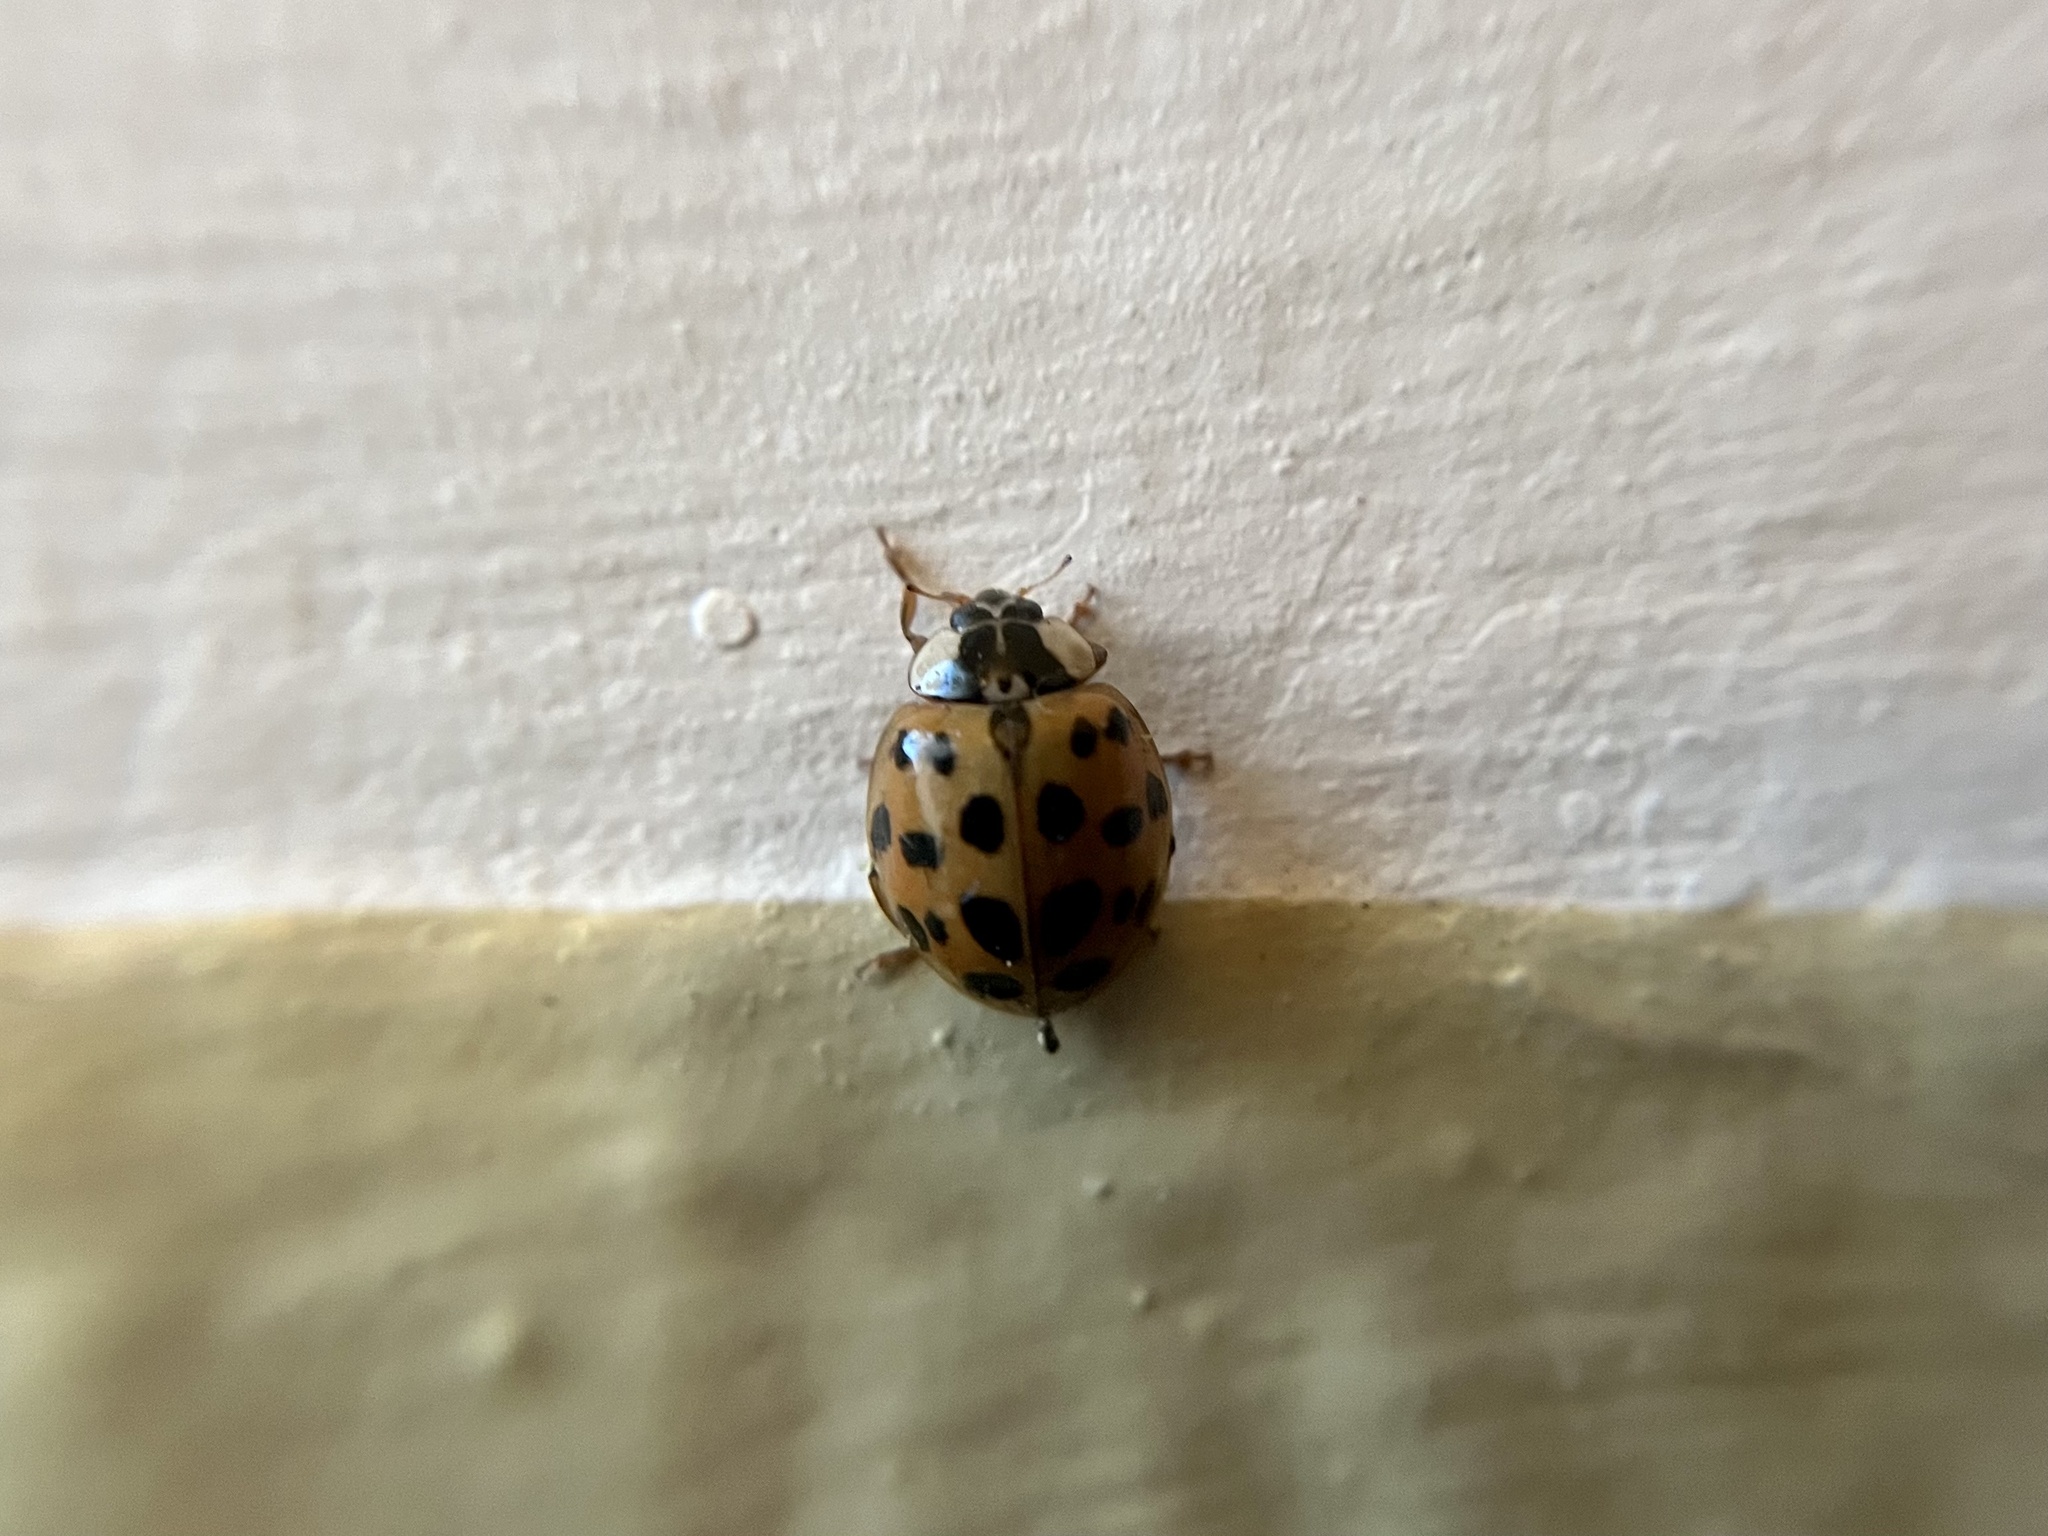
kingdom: Animalia
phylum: Arthropoda
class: Insecta
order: Coleoptera
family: Coccinellidae
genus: Harmonia
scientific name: Harmonia axyridis
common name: Harlequin ladybird
